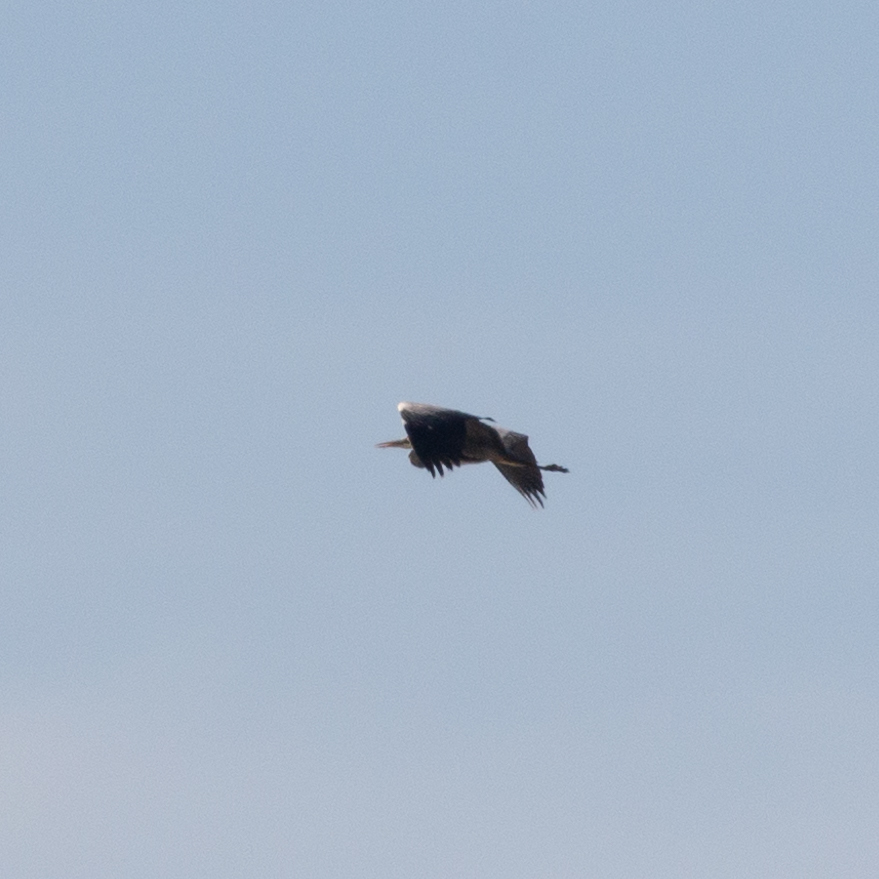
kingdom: Animalia
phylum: Chordata
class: Aves
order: Pelecaniformes
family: Ardeidae
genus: Ardea
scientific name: Ardea cinerea
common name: Grey heron
